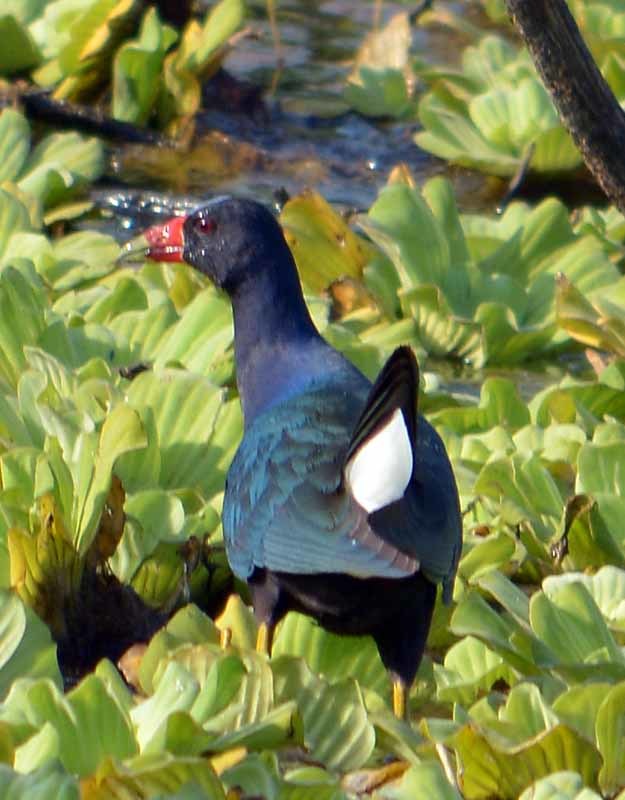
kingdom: Animalia
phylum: Chordata
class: Aves
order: Gruiformes
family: Rallidae
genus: Porphyrio
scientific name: Porphyrio martinica
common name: Purple gallinule
